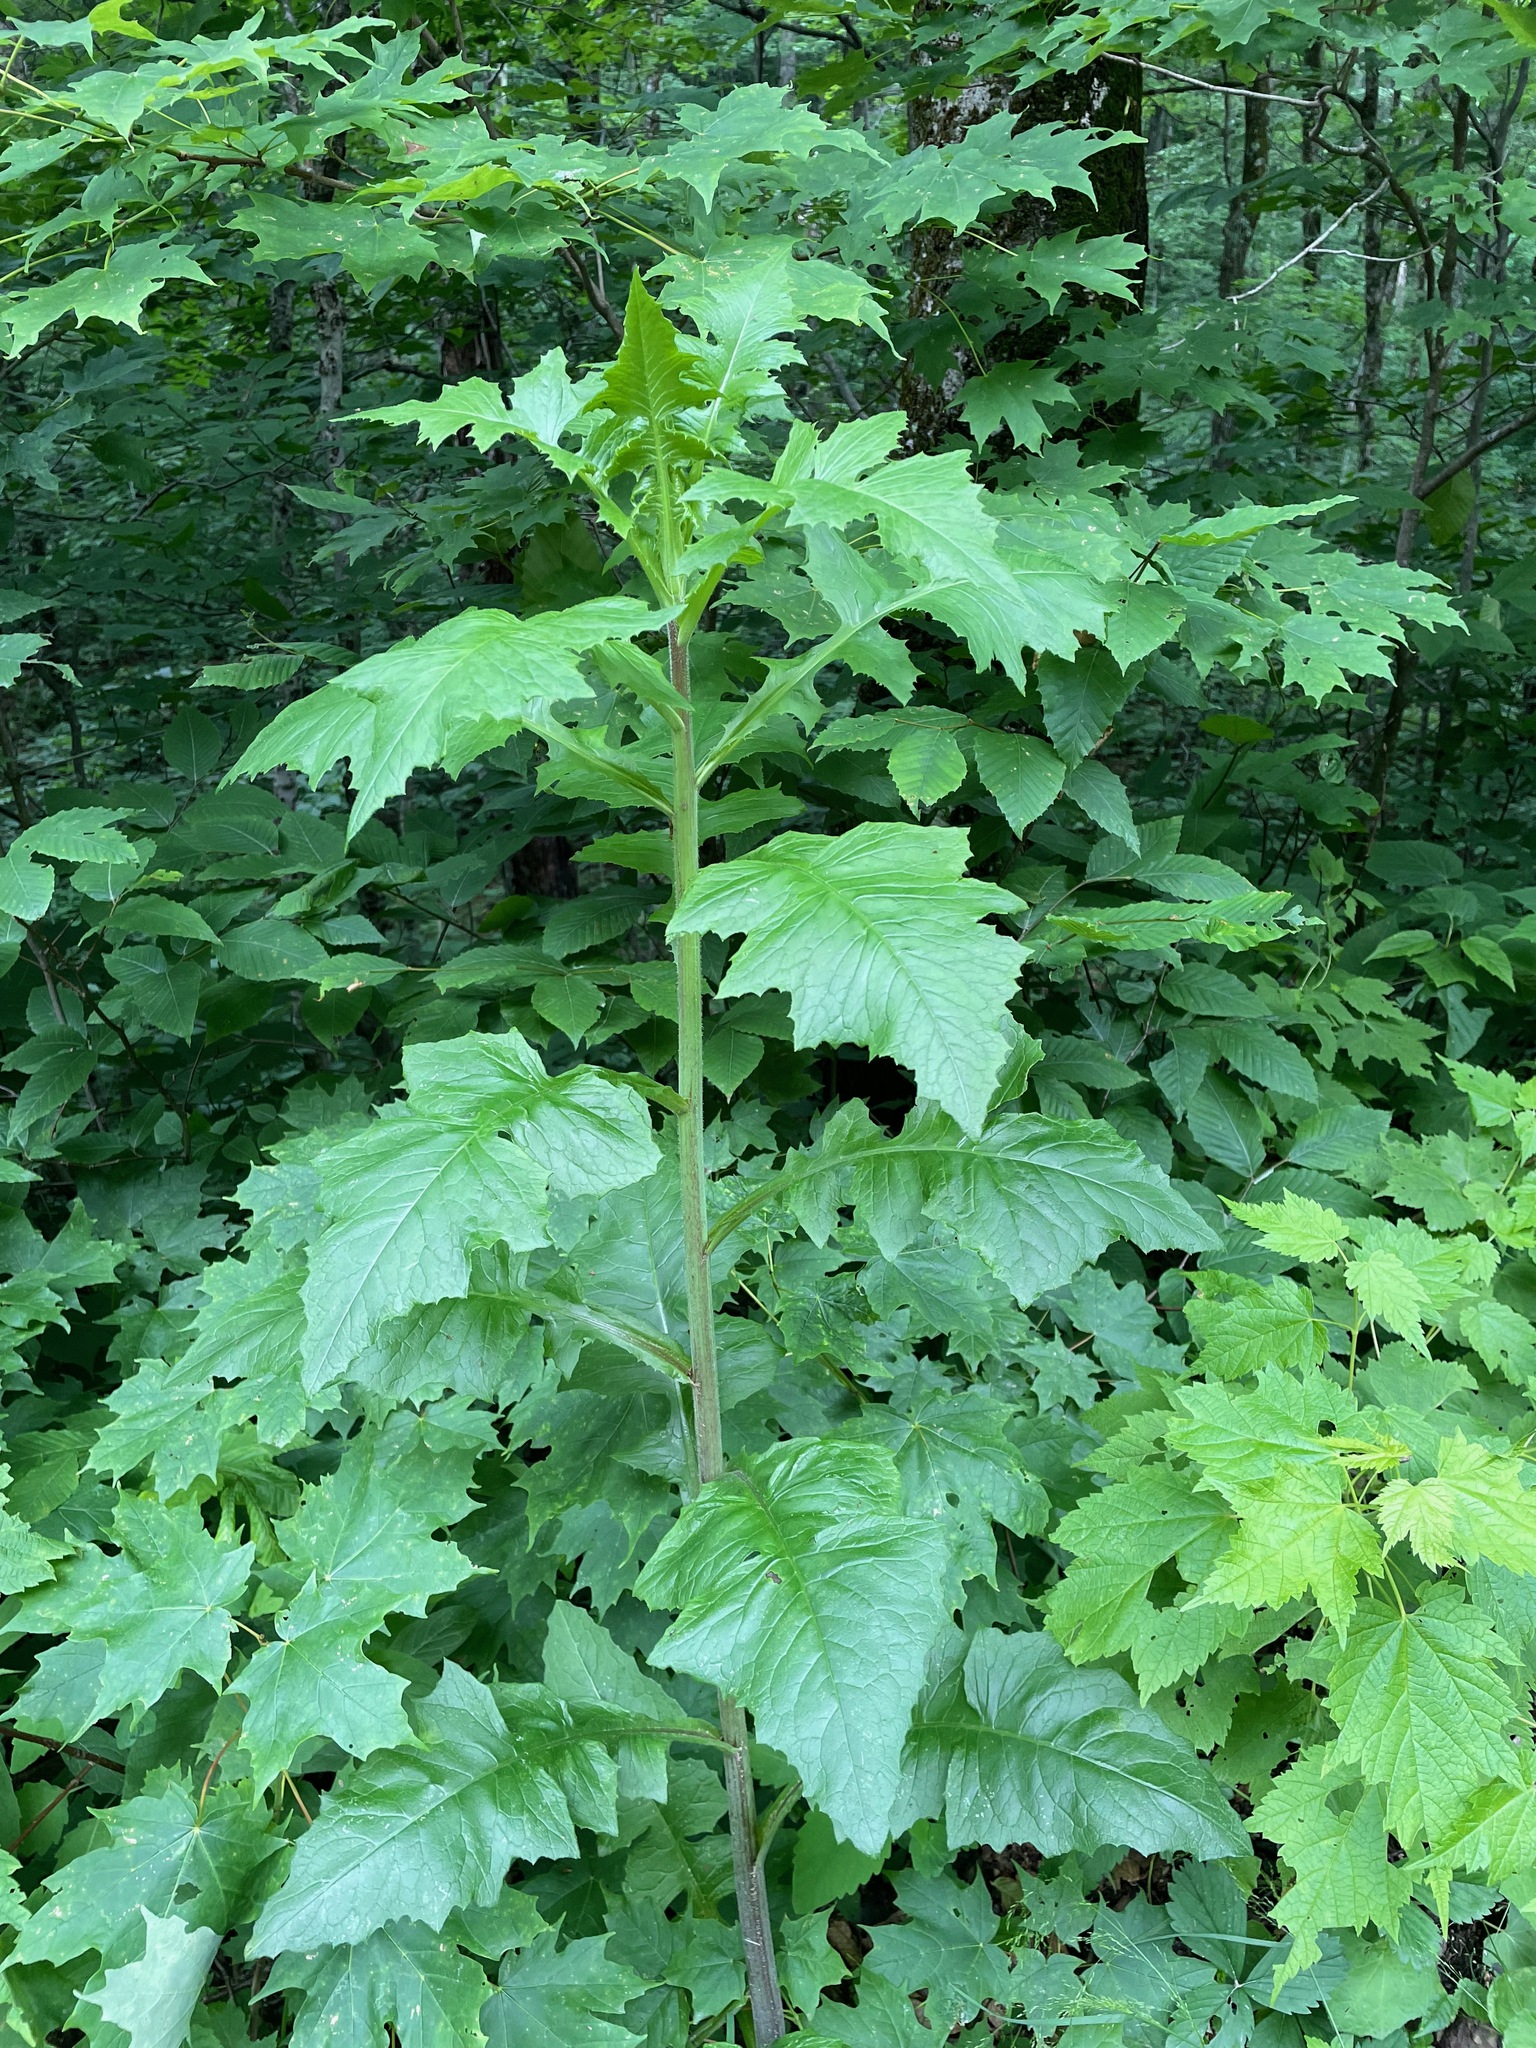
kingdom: Plantae
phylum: Tracheophyta
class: Magnoliopsida
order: Asterales
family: Asteraceae
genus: Lactuca
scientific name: Lactuca biennis
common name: Blue wood lettuce
